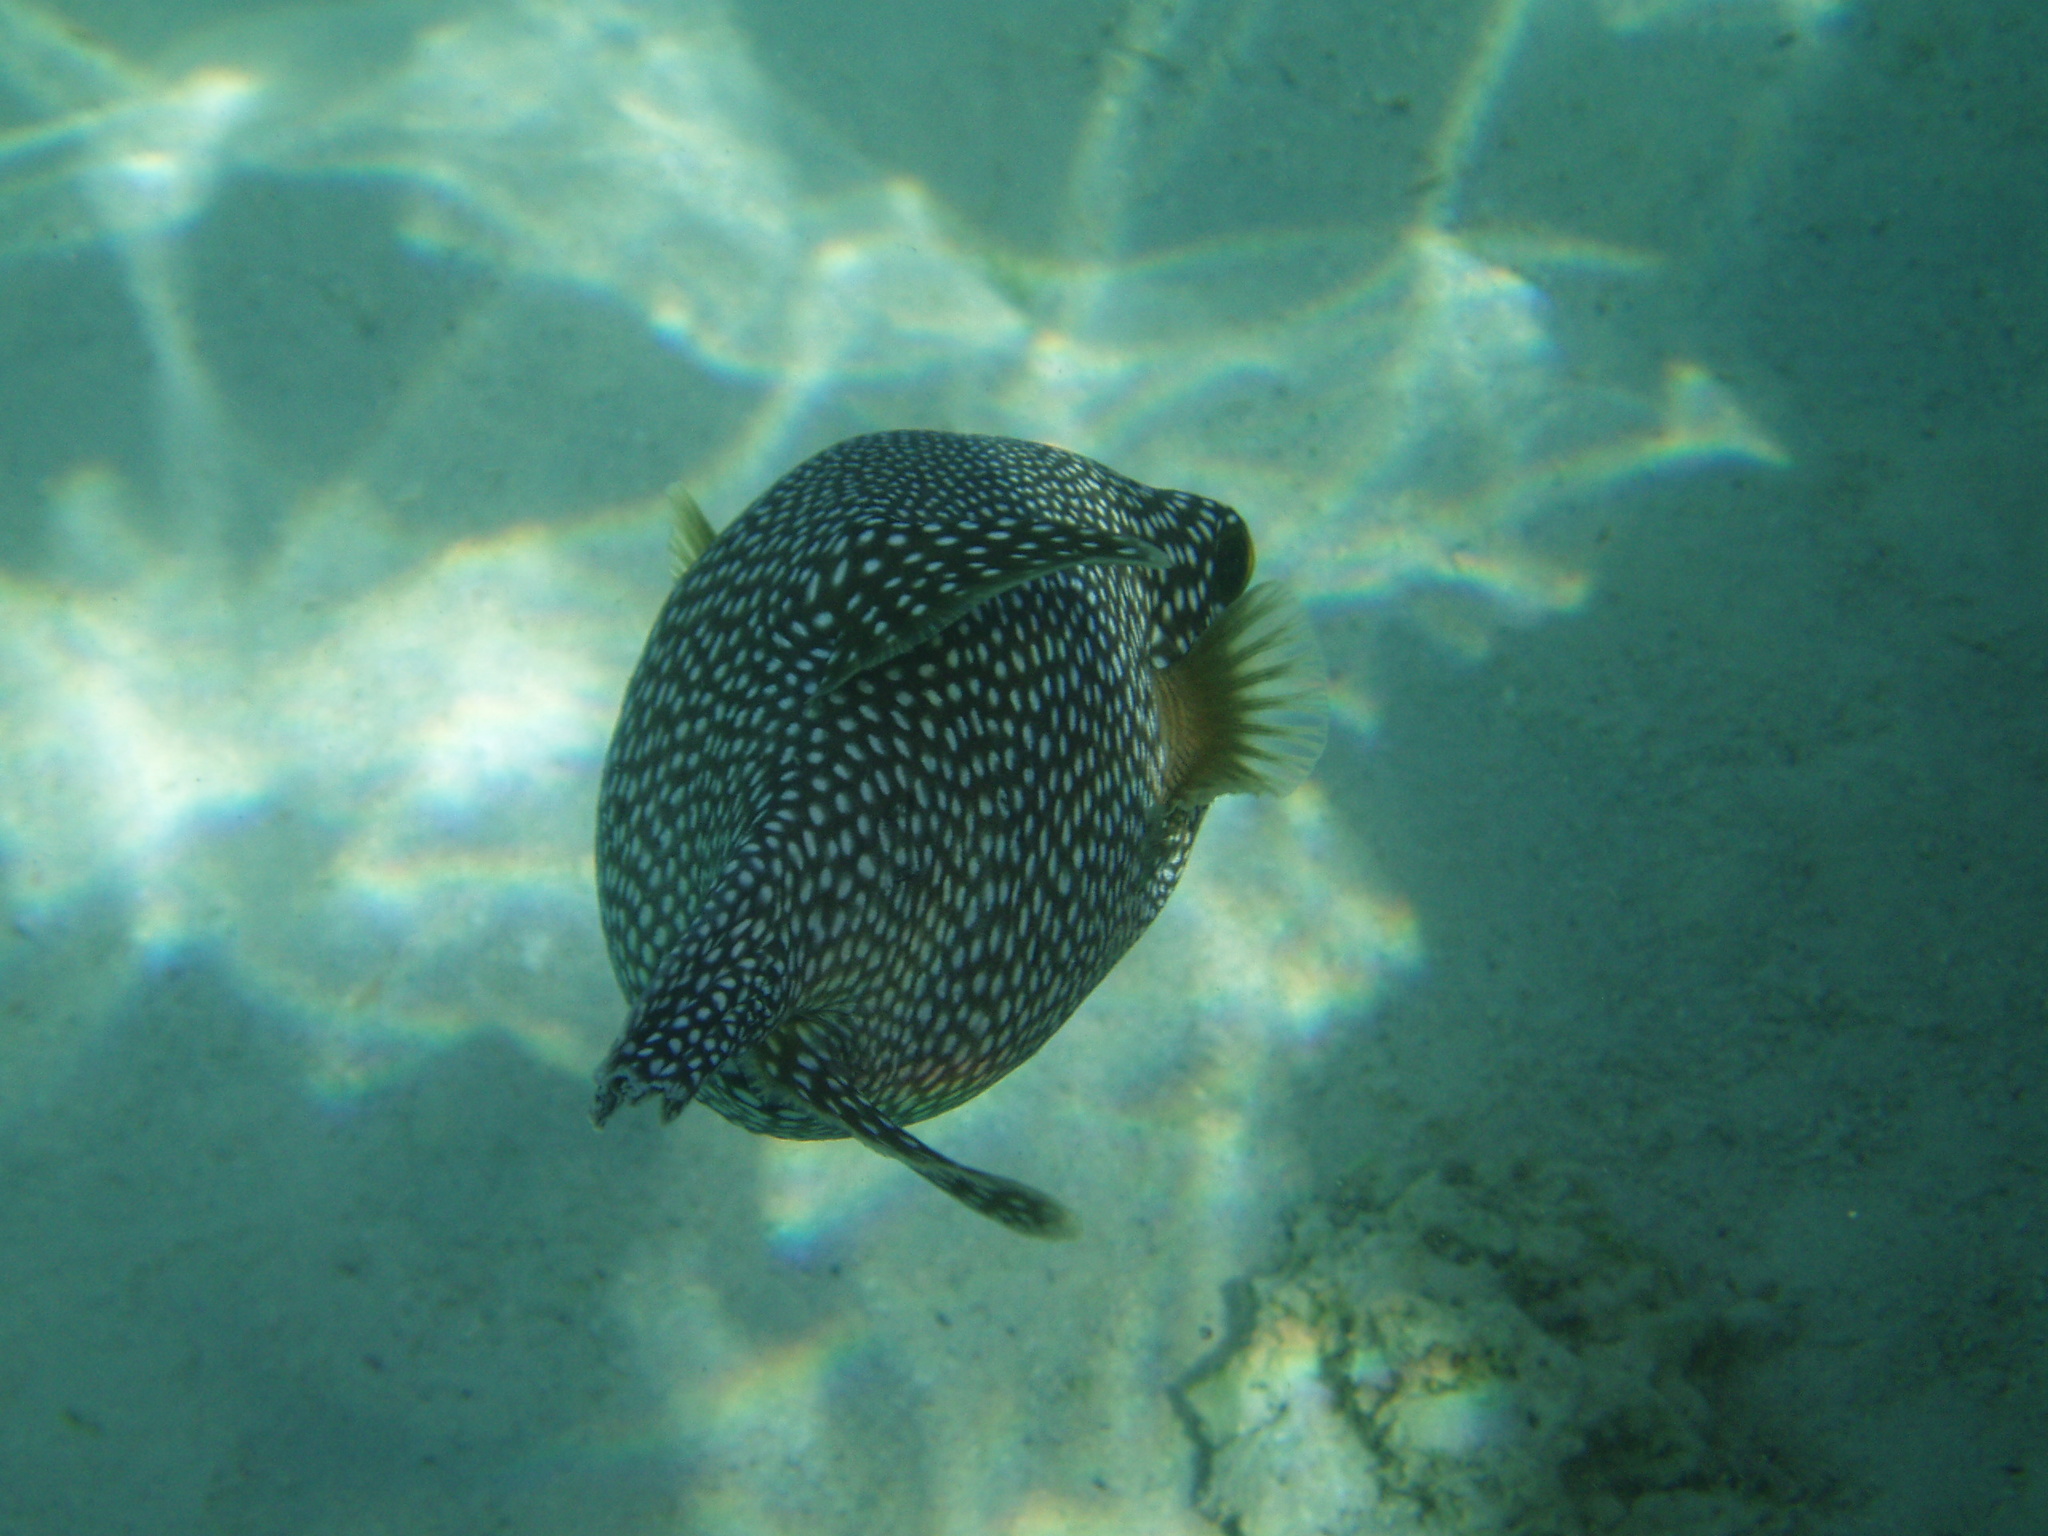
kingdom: Animalia
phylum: Chordata
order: Tetraodontiformes
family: Tetraodontidae
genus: Arothron
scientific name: Arothron meleagris
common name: Guinea-fowl pufferfish
